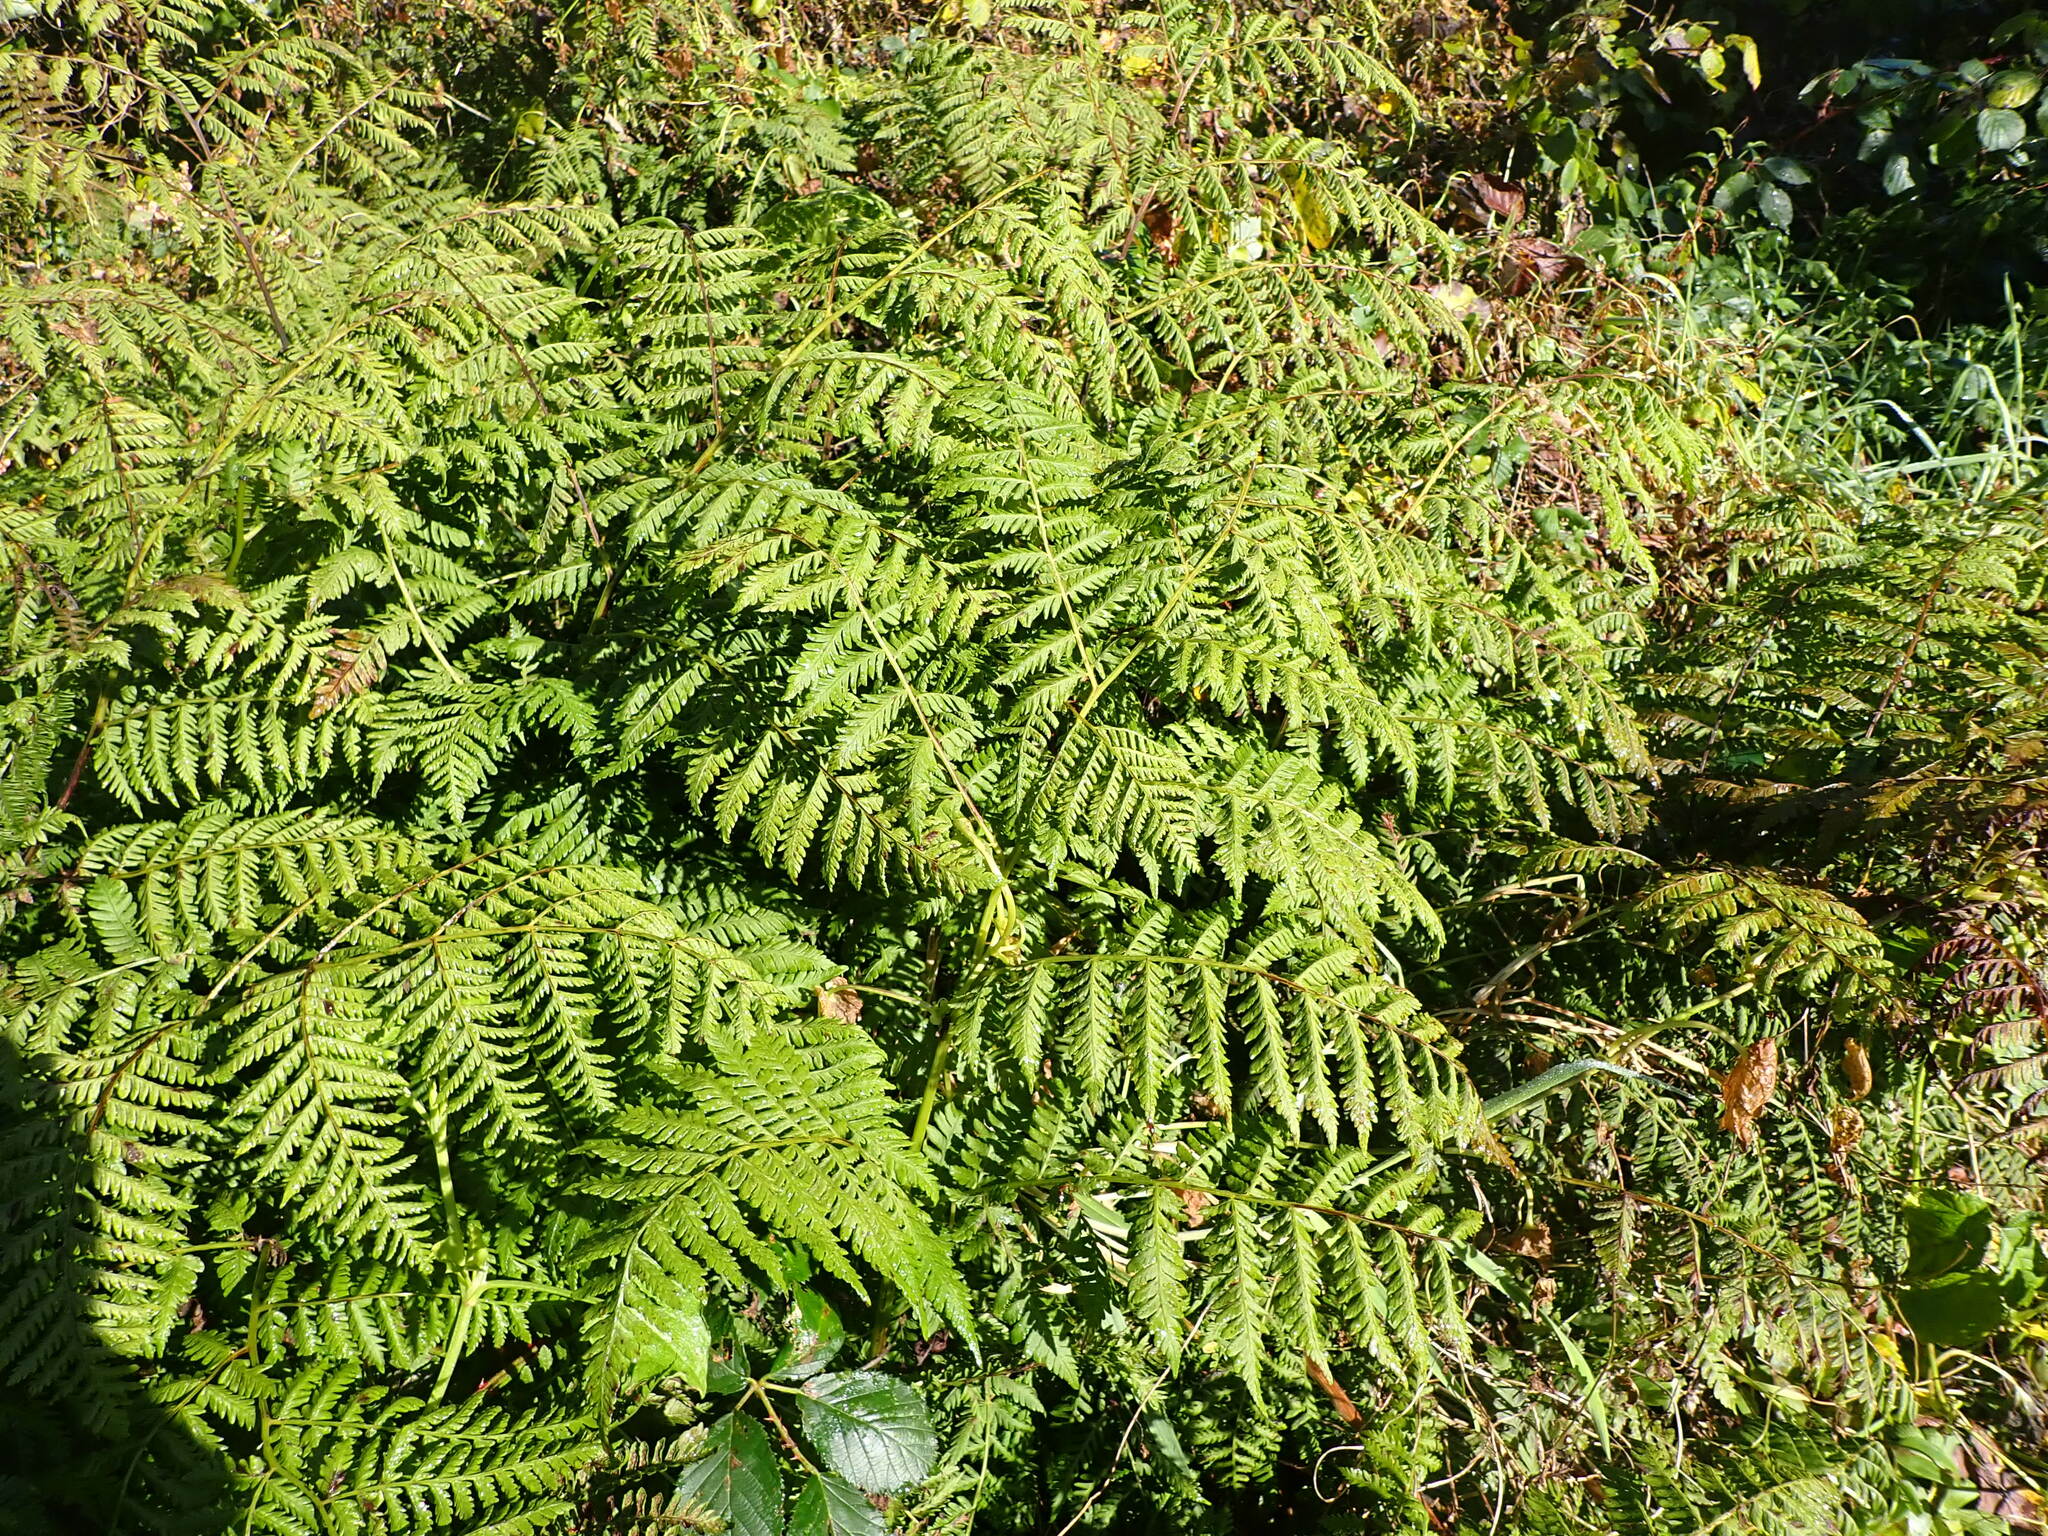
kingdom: Plantae
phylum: Tracheophyta
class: Polypodiopsida
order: Polypodiales
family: Athyriaceae
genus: Diplazium
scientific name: Diplazium australe
